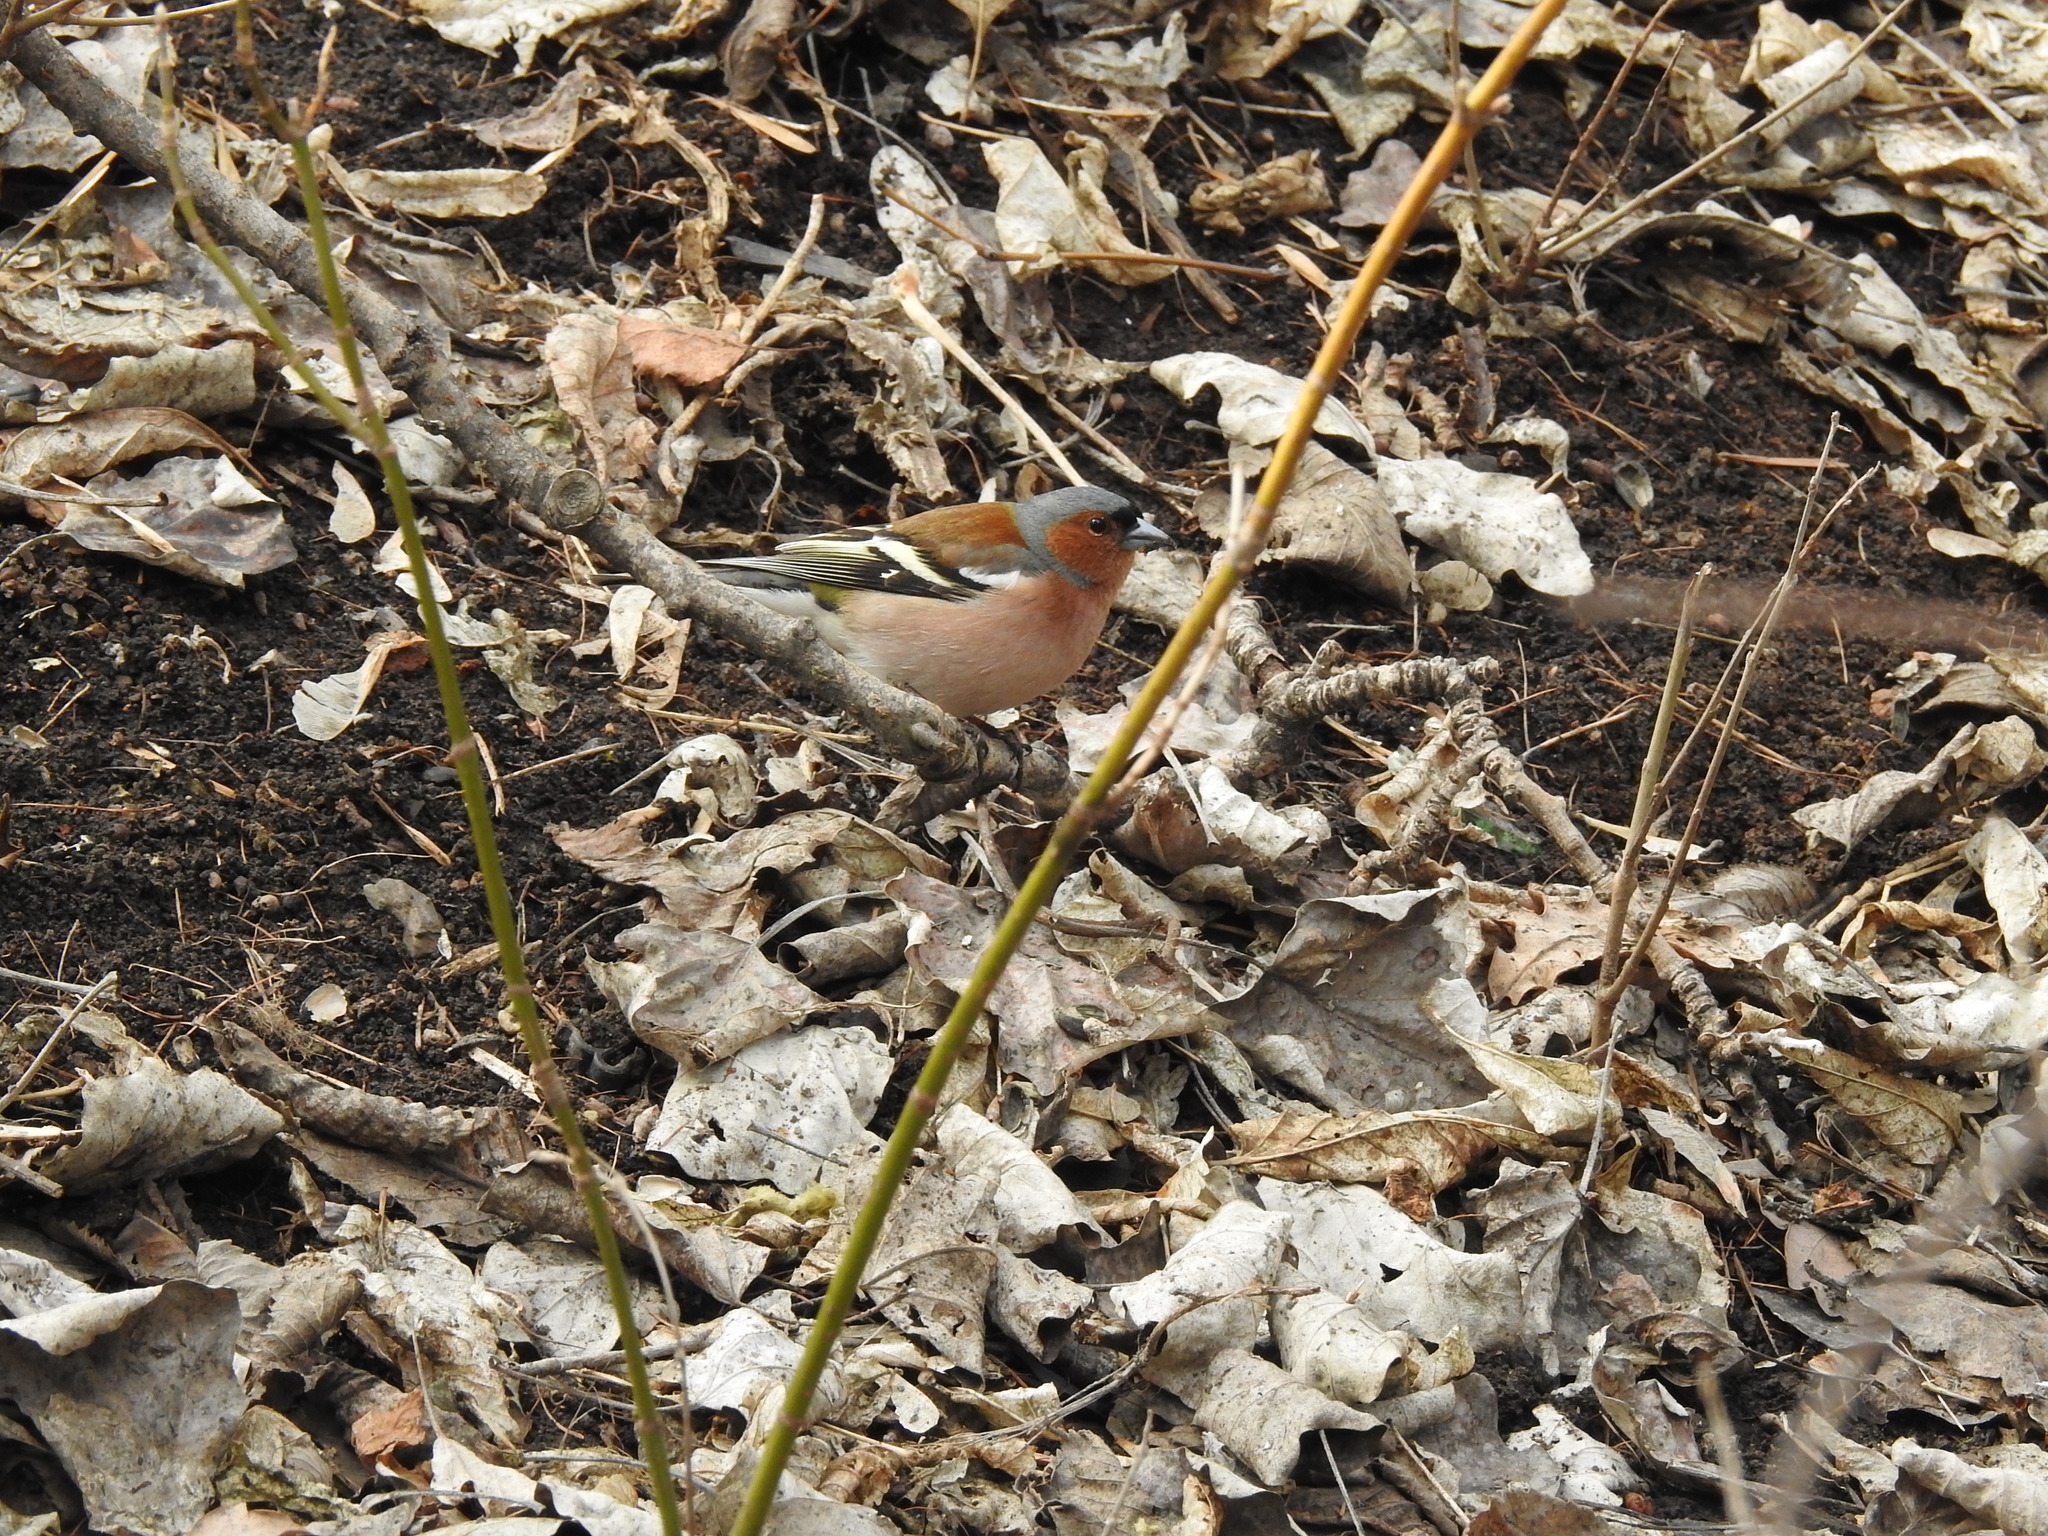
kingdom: Animalia
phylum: Chordata
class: Aves
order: Passeriformes
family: Fringillidae
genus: Fringilla
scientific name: Fringilla coelebs
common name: Common chaffinch
